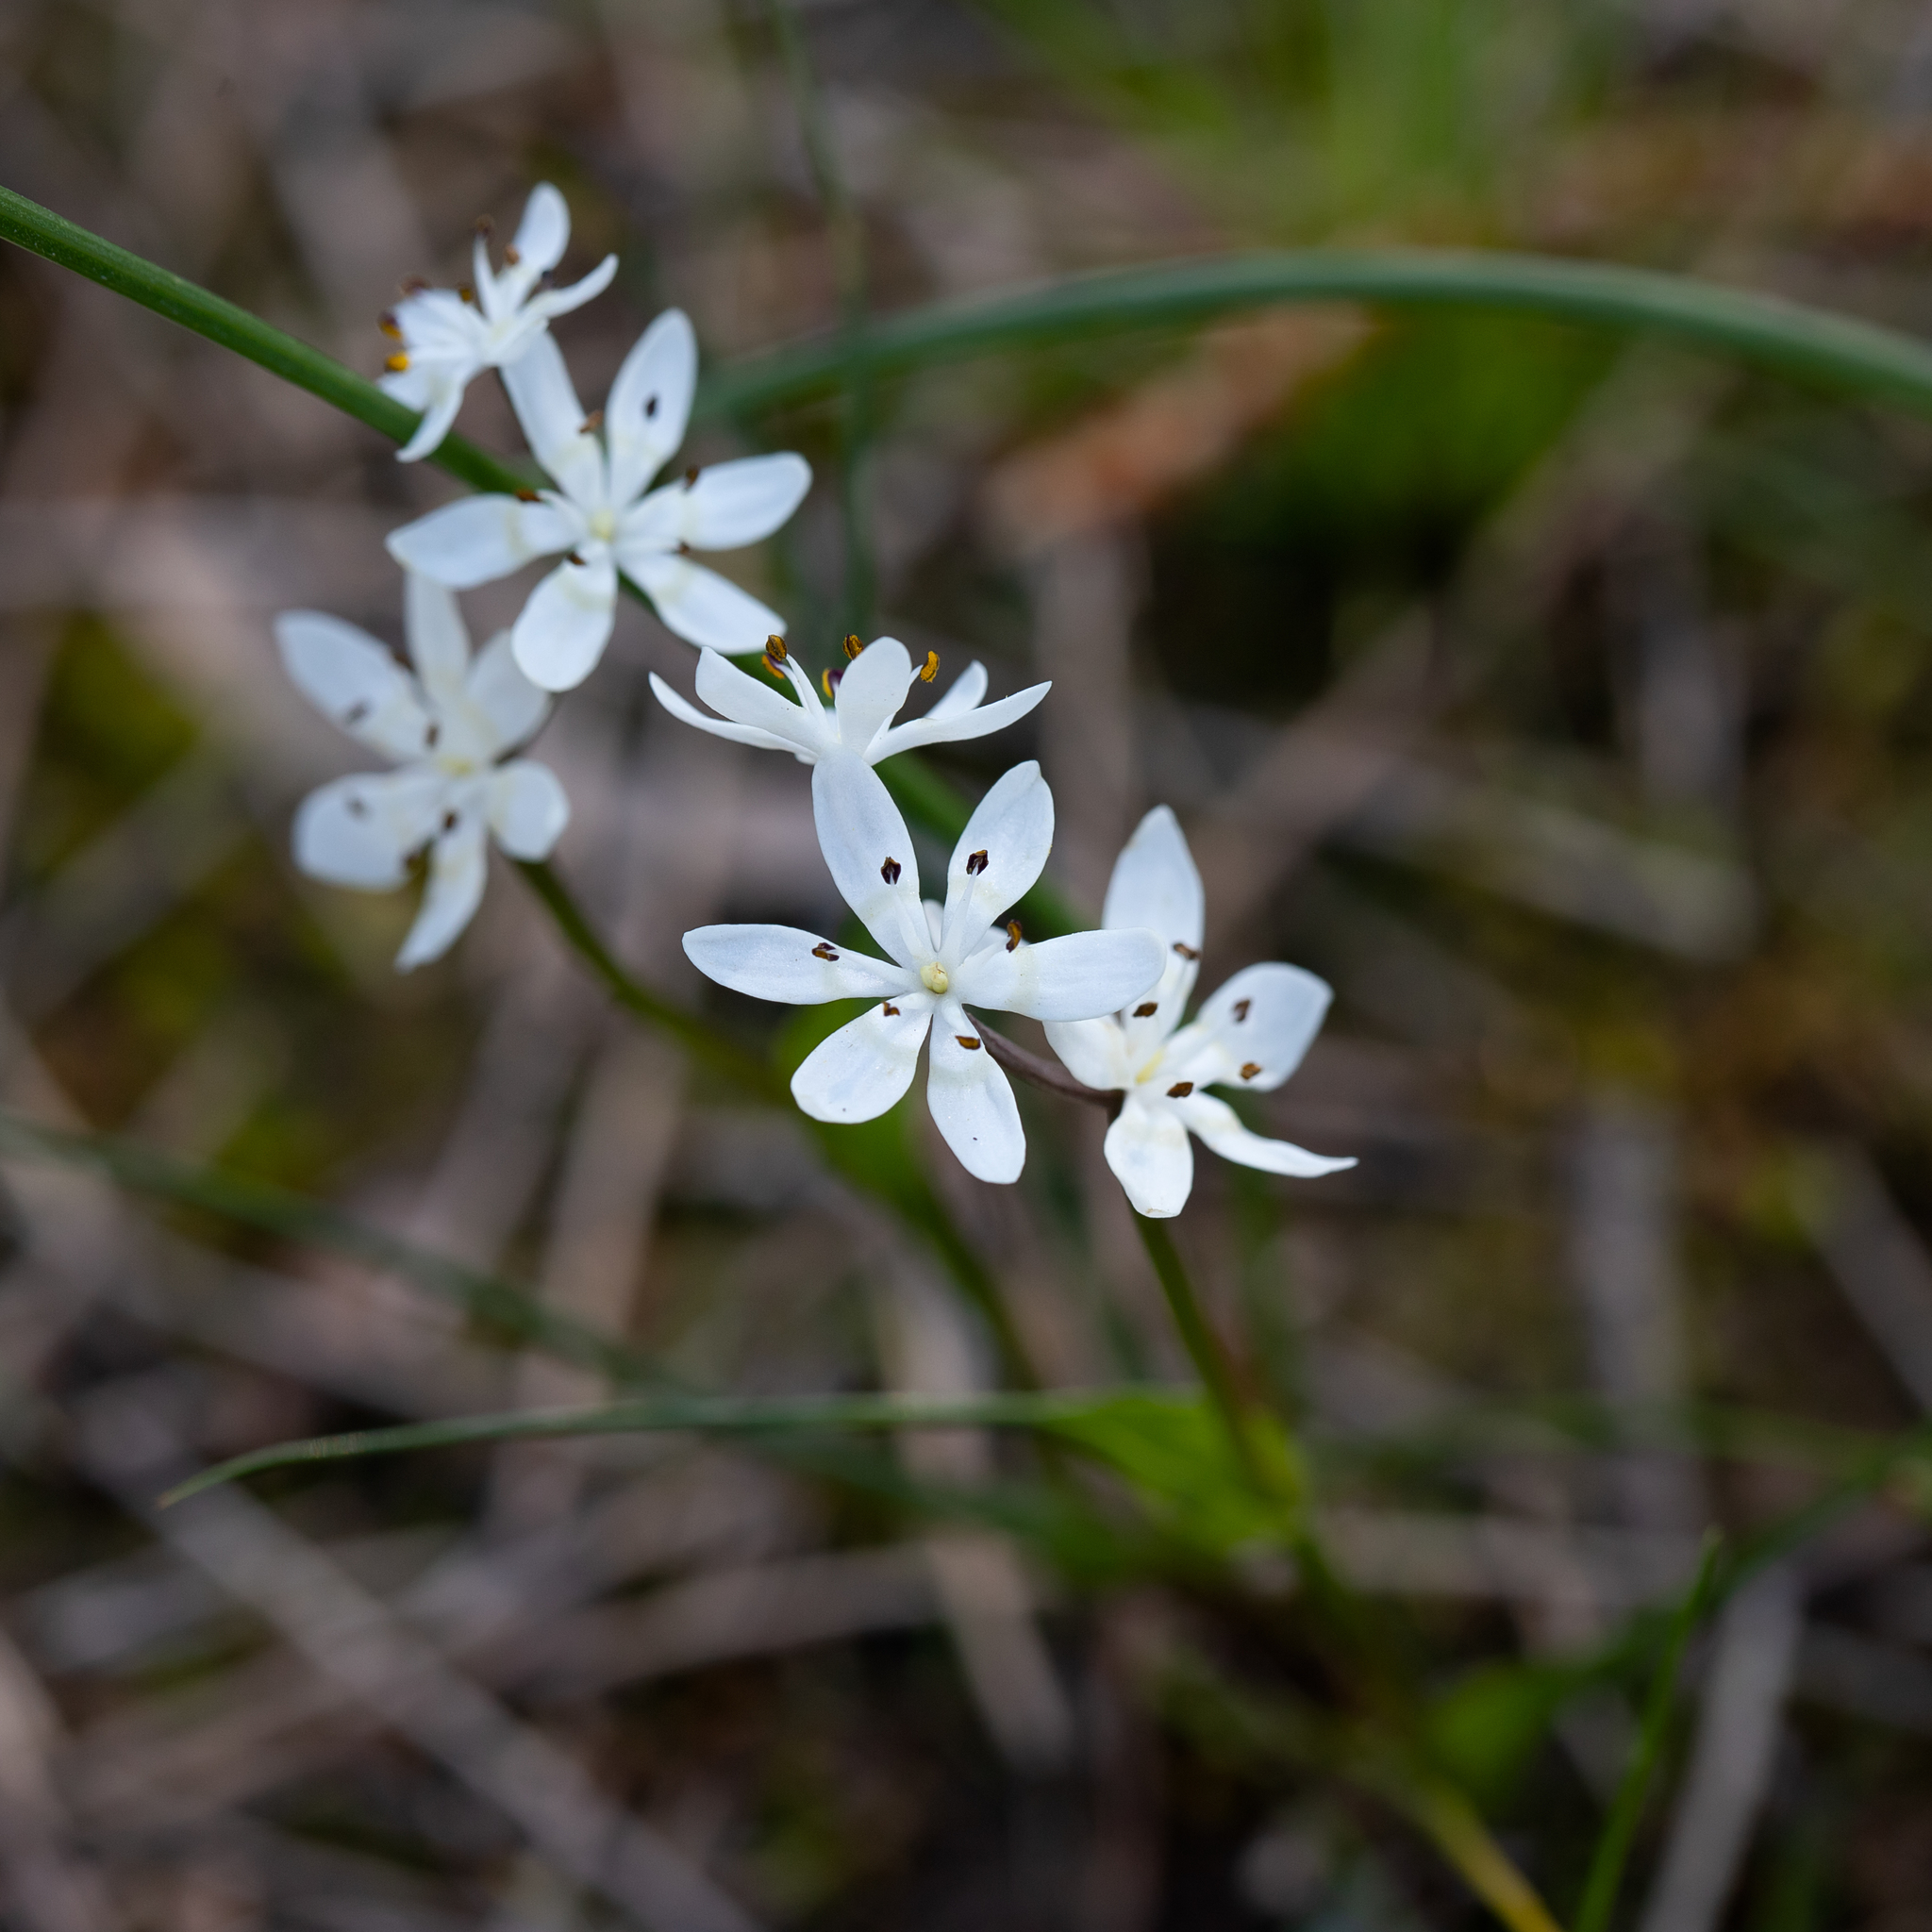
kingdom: Plantae
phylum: Tracheophyta
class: Liliopsida
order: Liliales
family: Colchicaceae
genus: Wurmbea
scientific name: Wurmbea dioica
